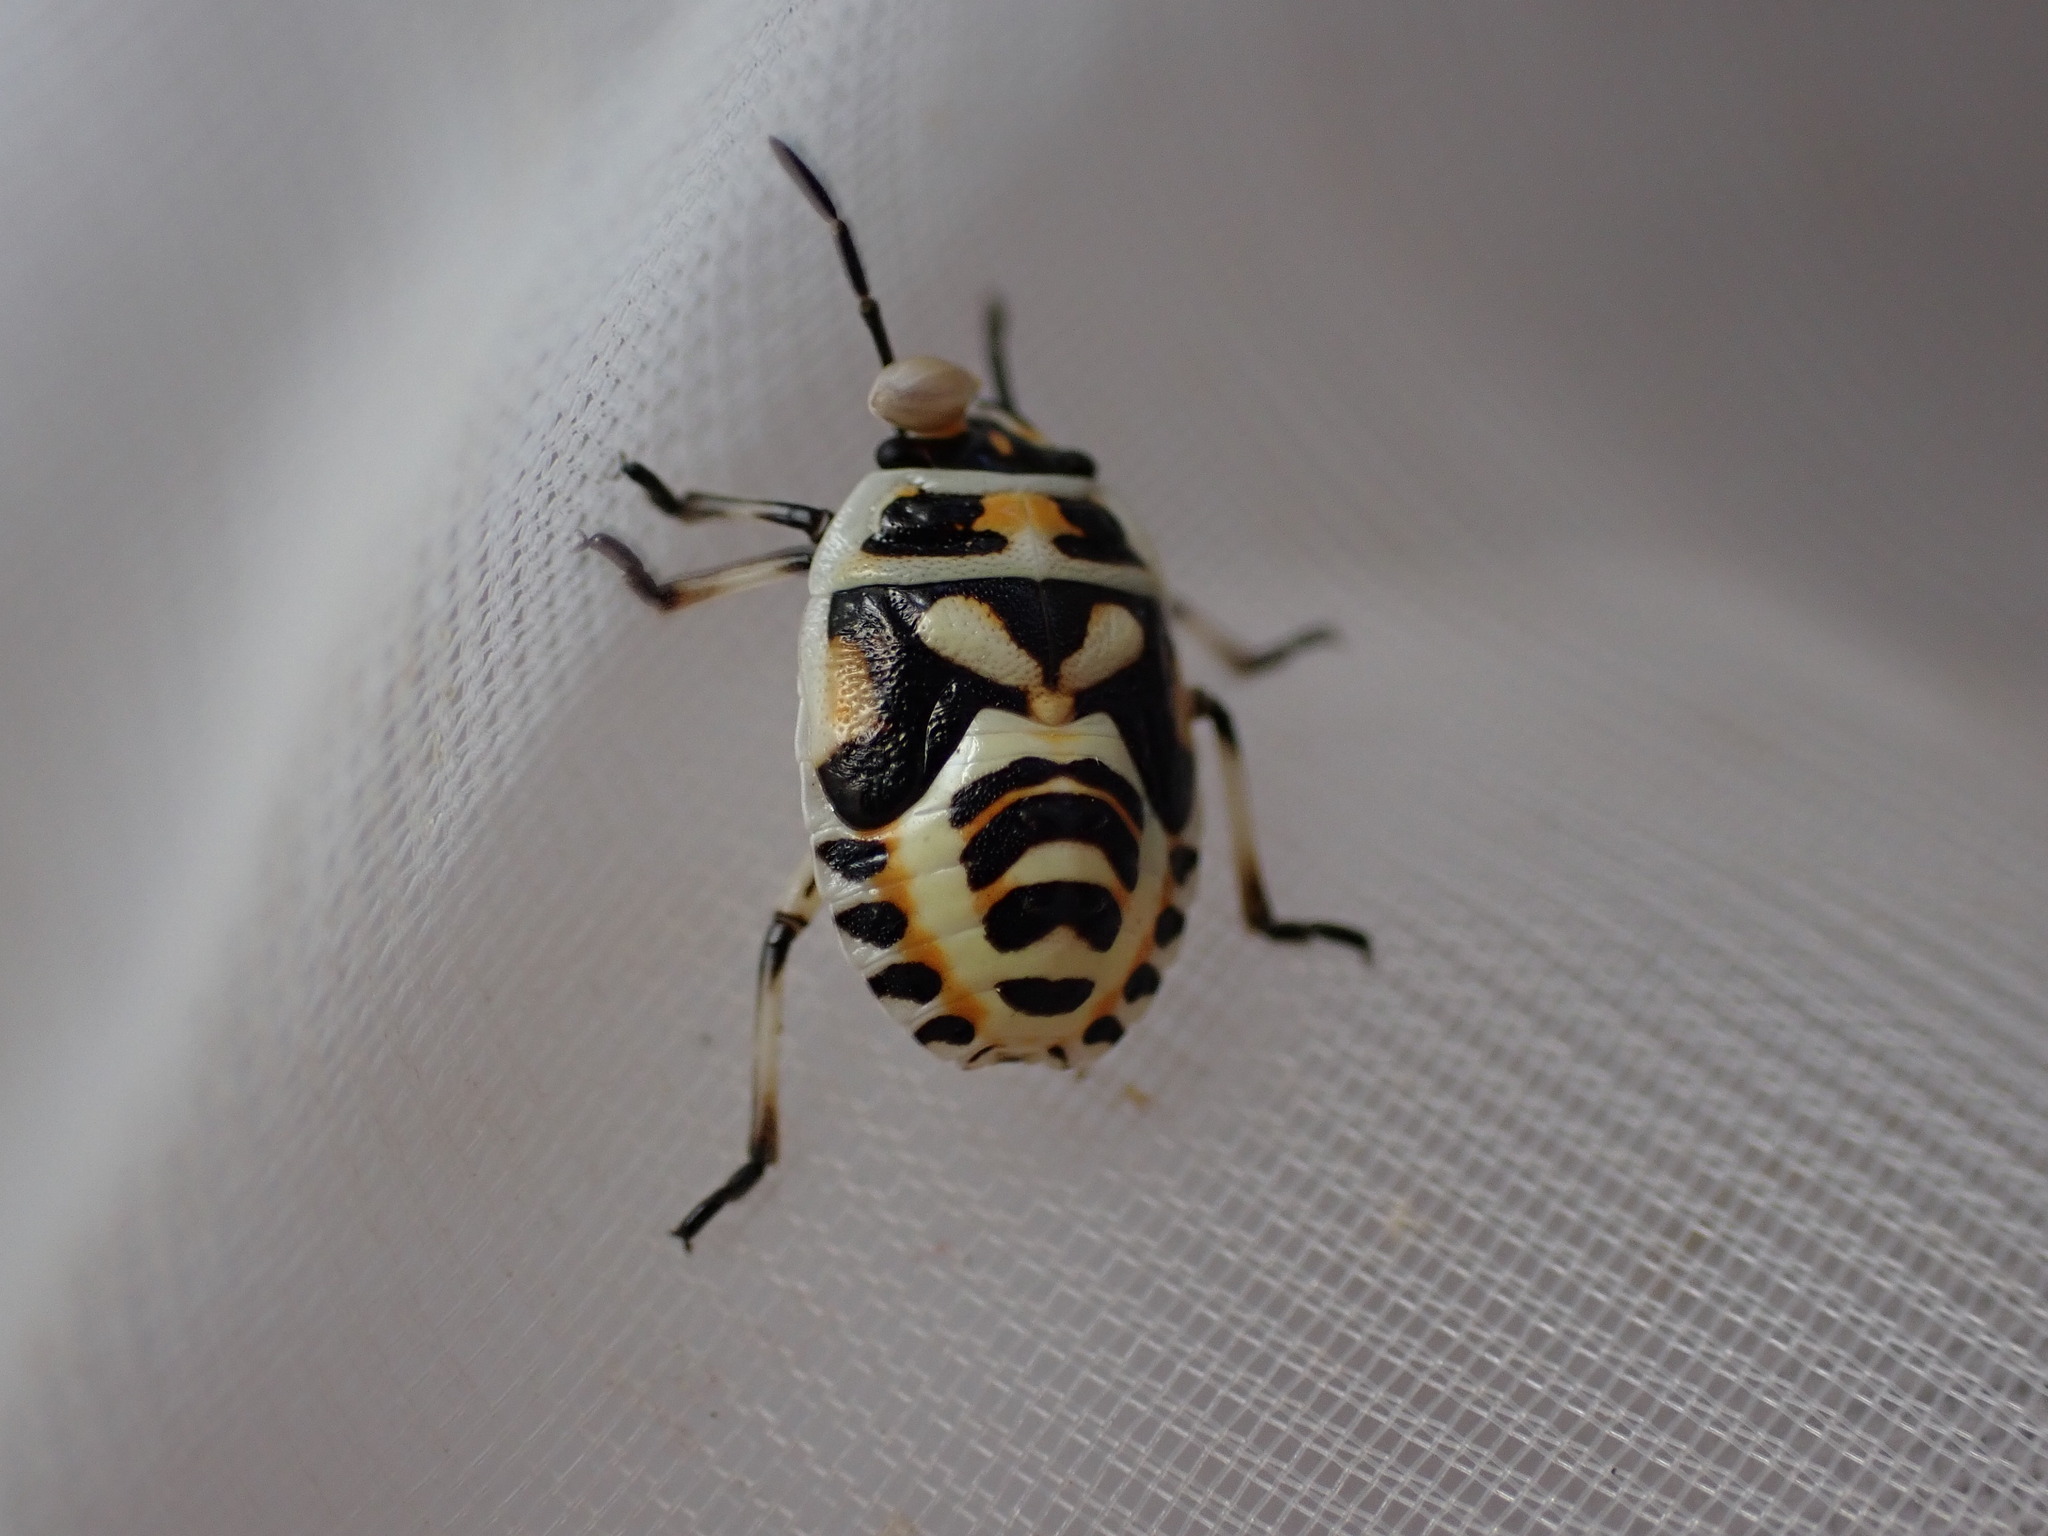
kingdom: Animalia
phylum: Arthropoda
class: Insecta
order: Hemiptera
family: Pentatomidae
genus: Eurydema
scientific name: Eurydema ornata
